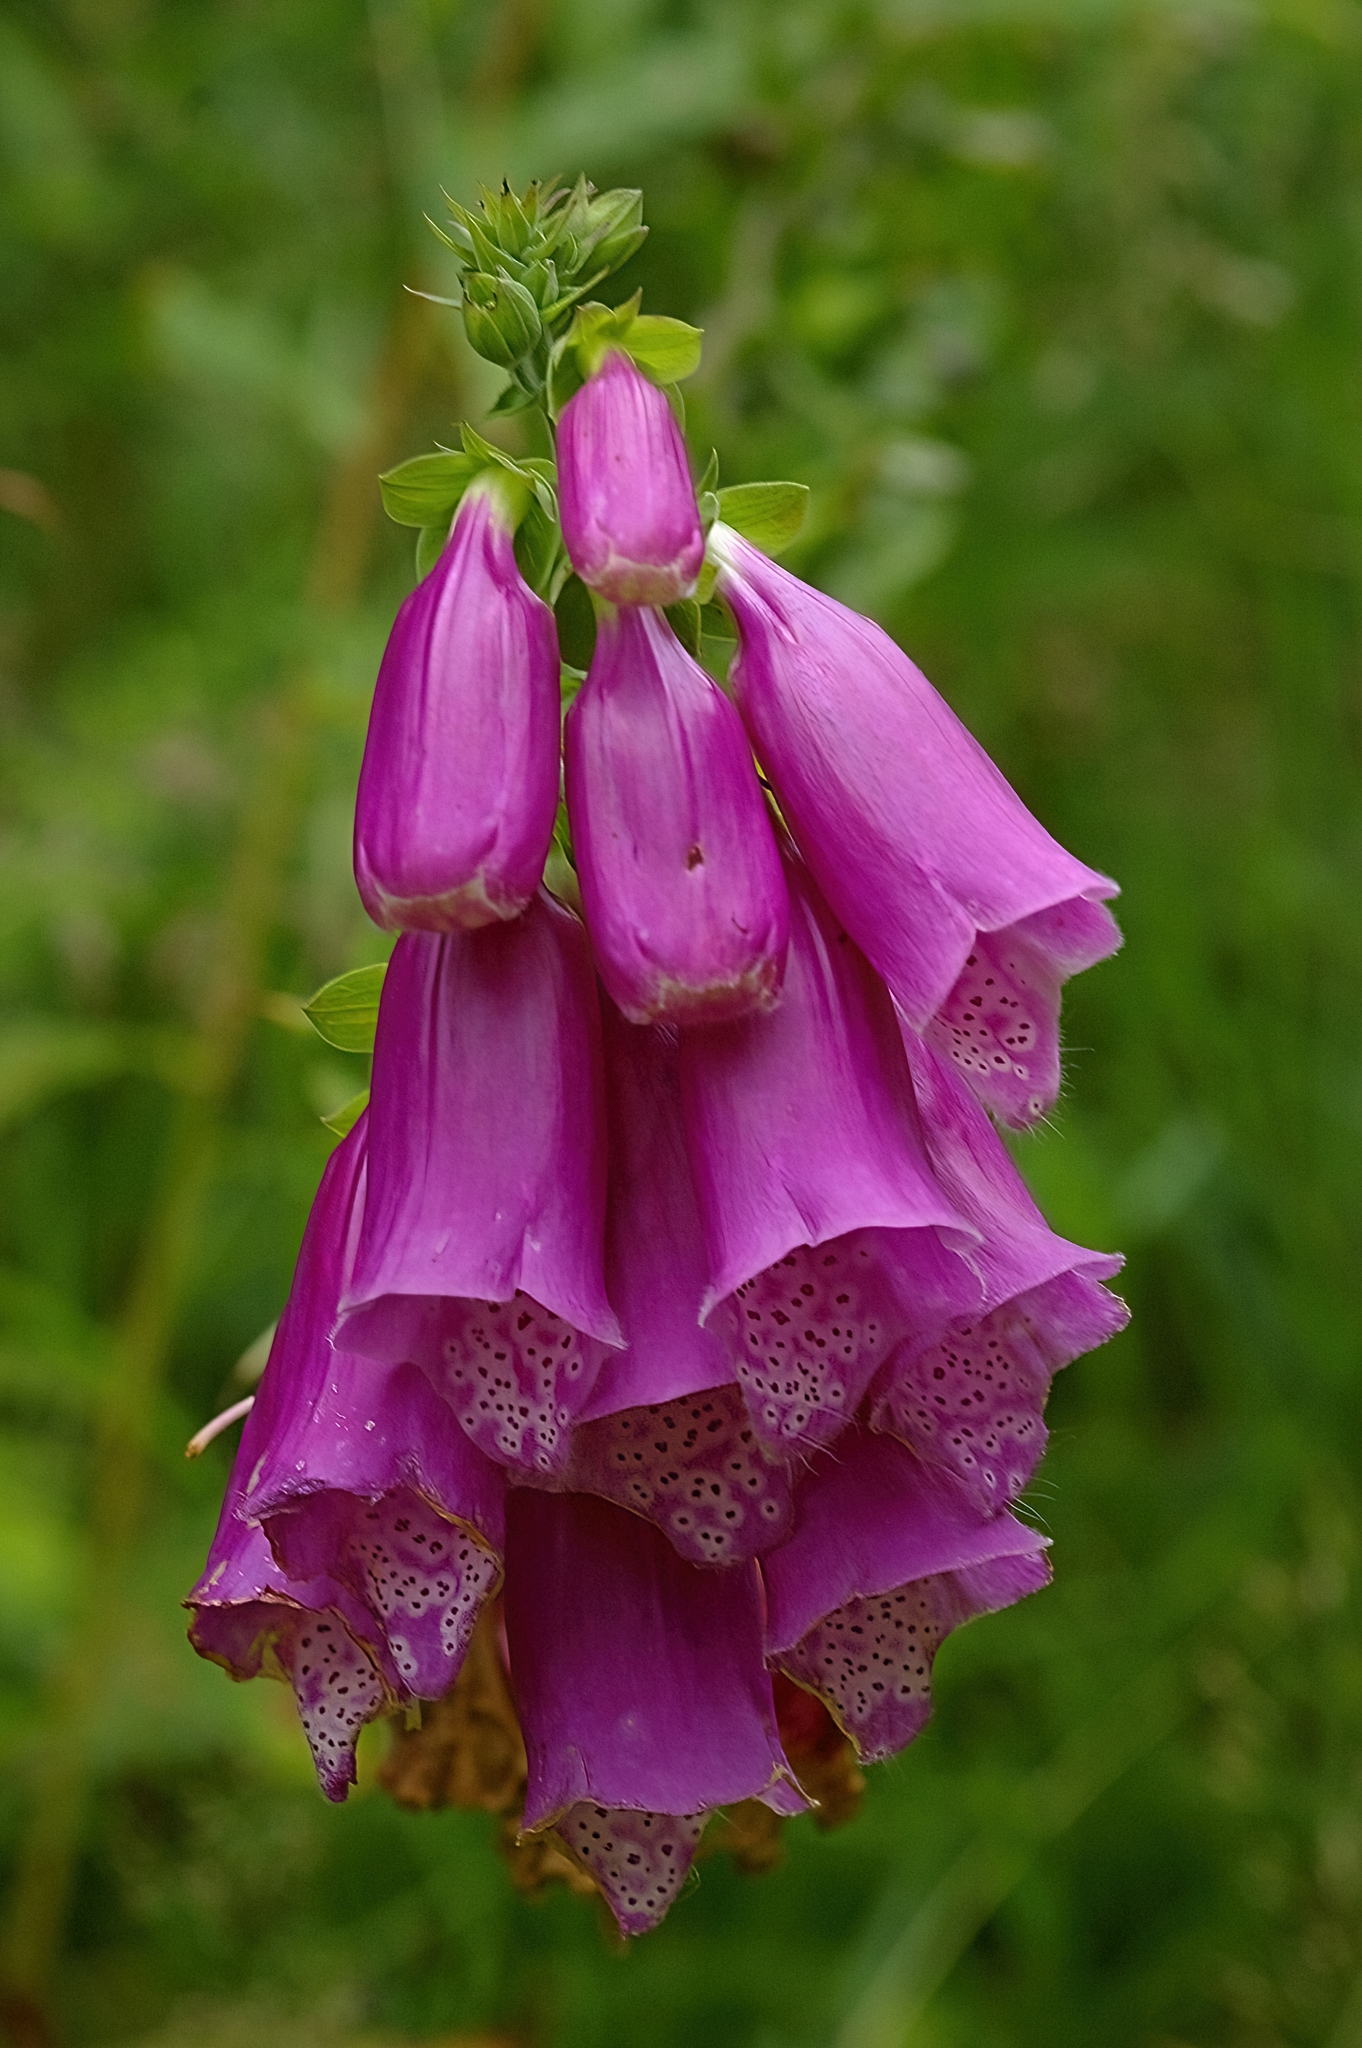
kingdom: Plantae
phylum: Tracheophyta
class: Magnoliopsida
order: Lamiales
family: Plantaginaceae
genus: Digitalis
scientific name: Digitalis purpurea
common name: Foxglove
